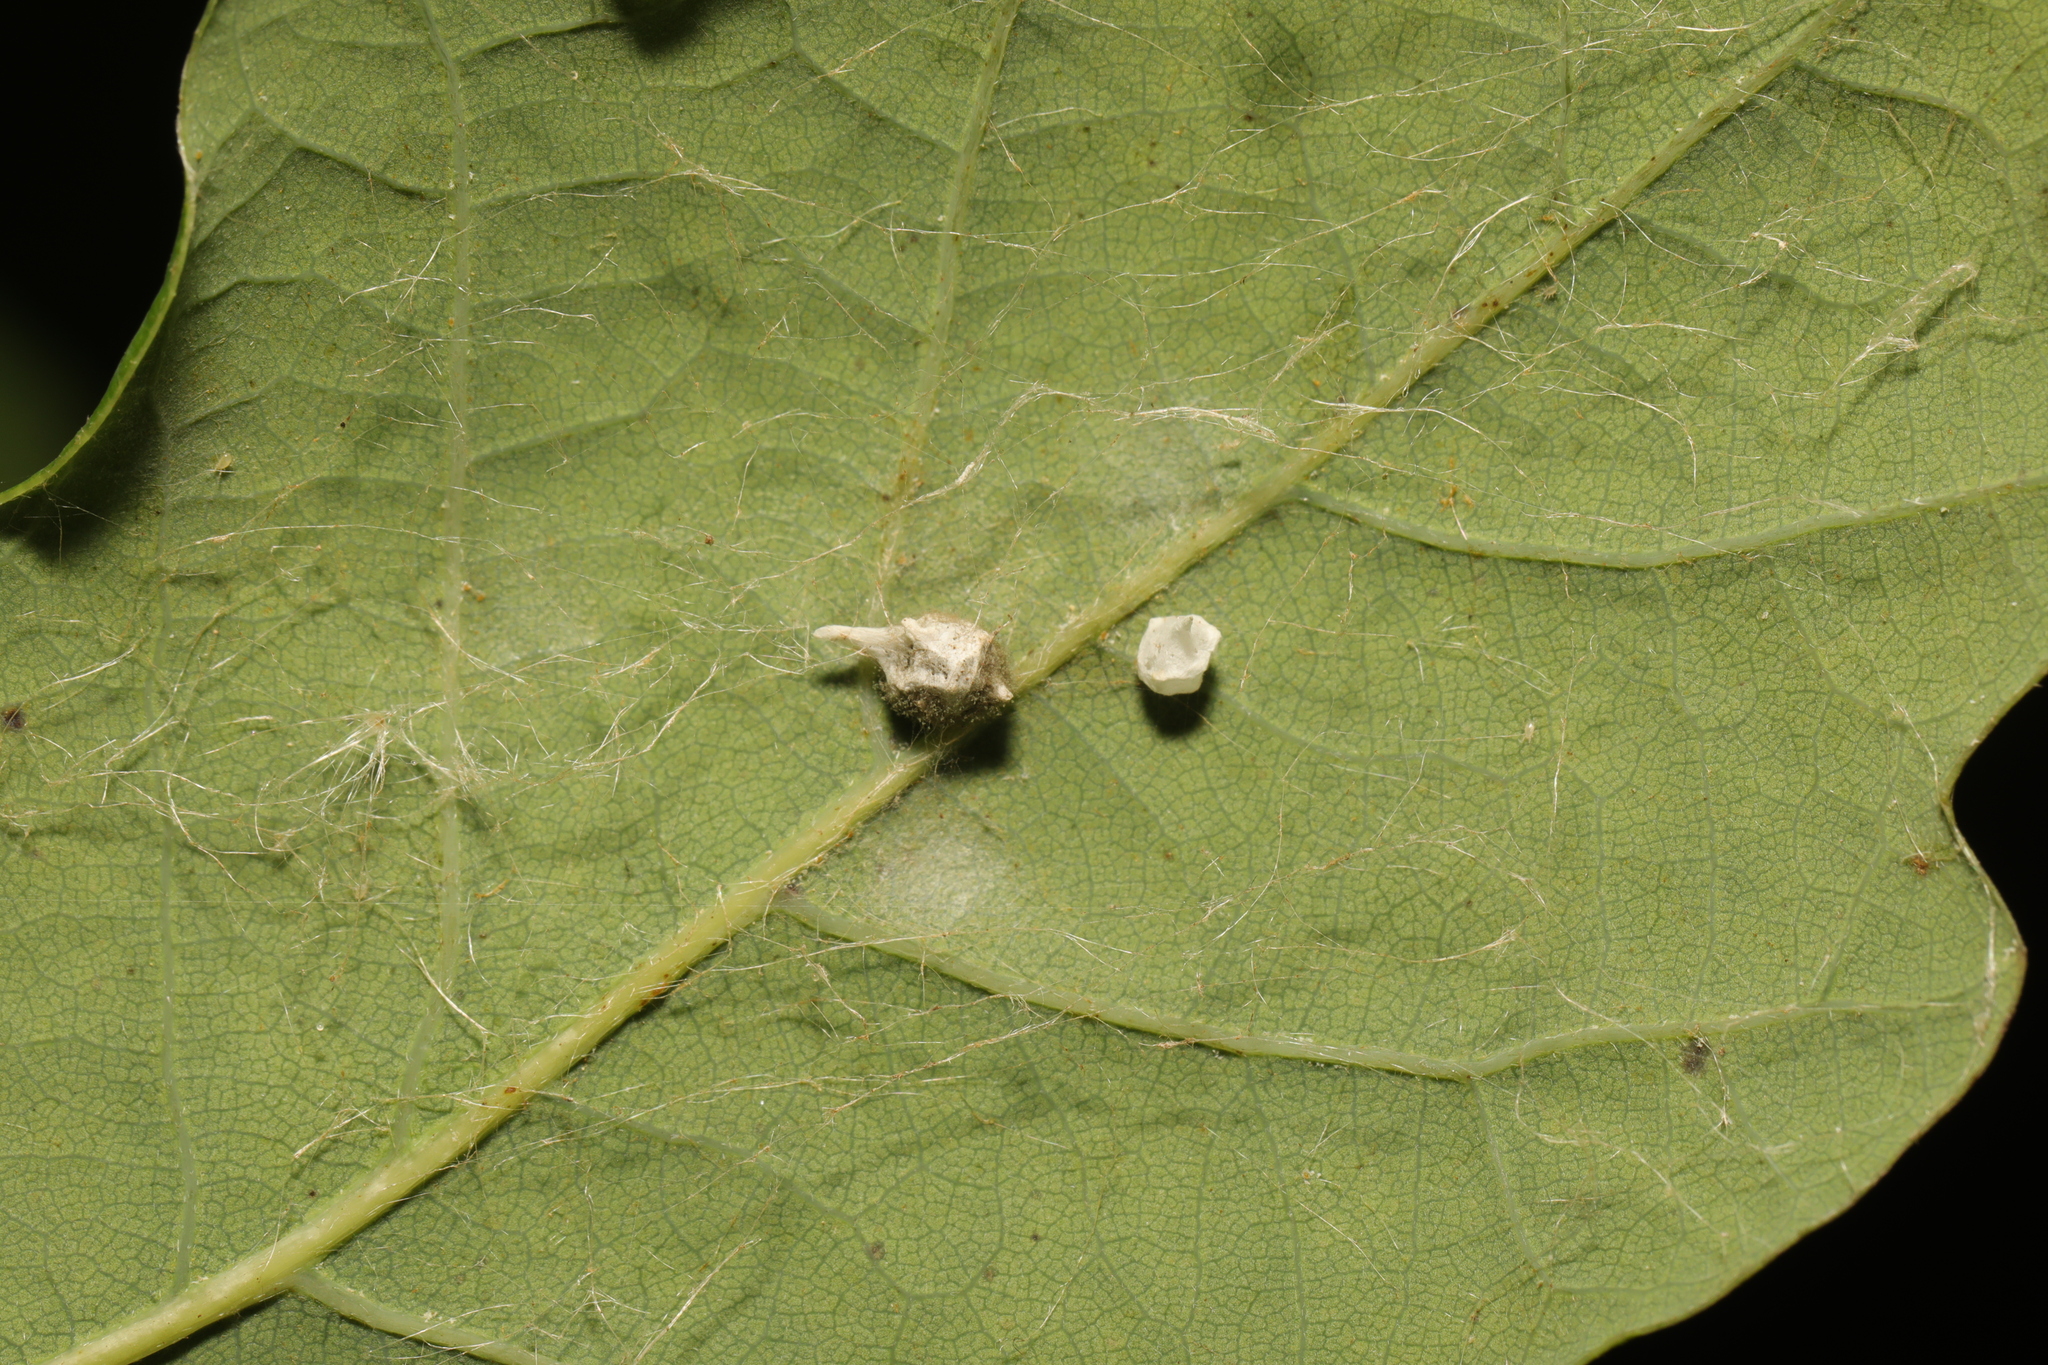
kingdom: Animalia
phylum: Arthropoda
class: Arachnida
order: Araneae
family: Theridiidae
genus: Paidiscura
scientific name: Paidiscura pallens
